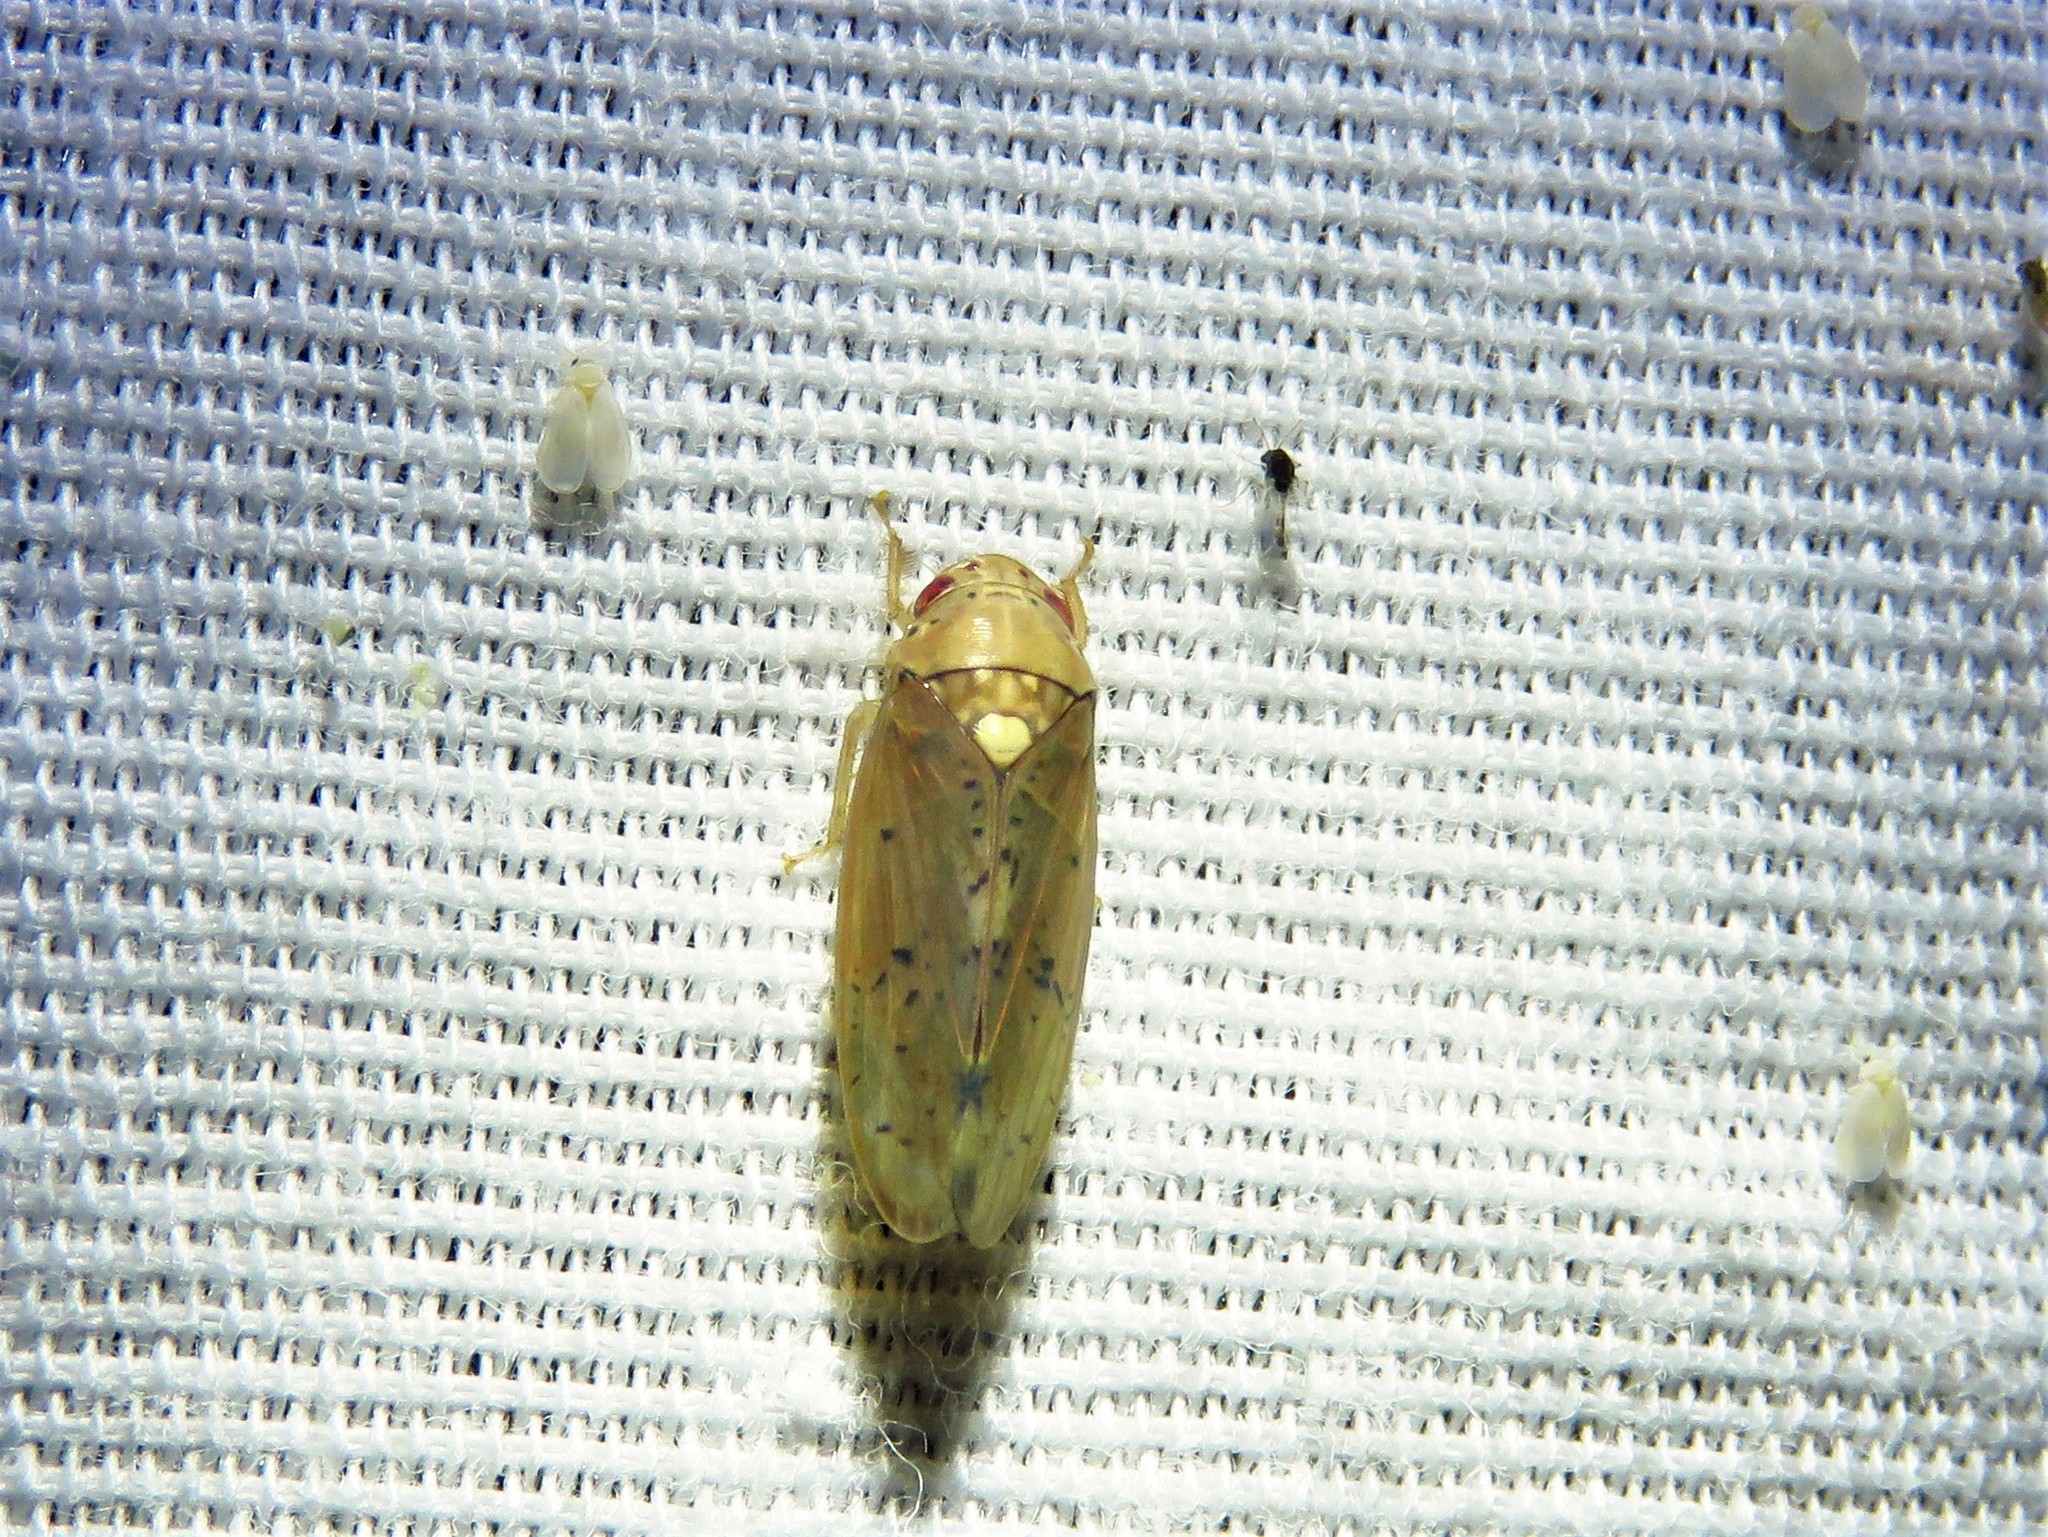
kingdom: Animalia
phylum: Arthropoda
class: Insecta
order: Hemiptera
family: Cicadellidae
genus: Ponana
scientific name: Ponana quadralaba
